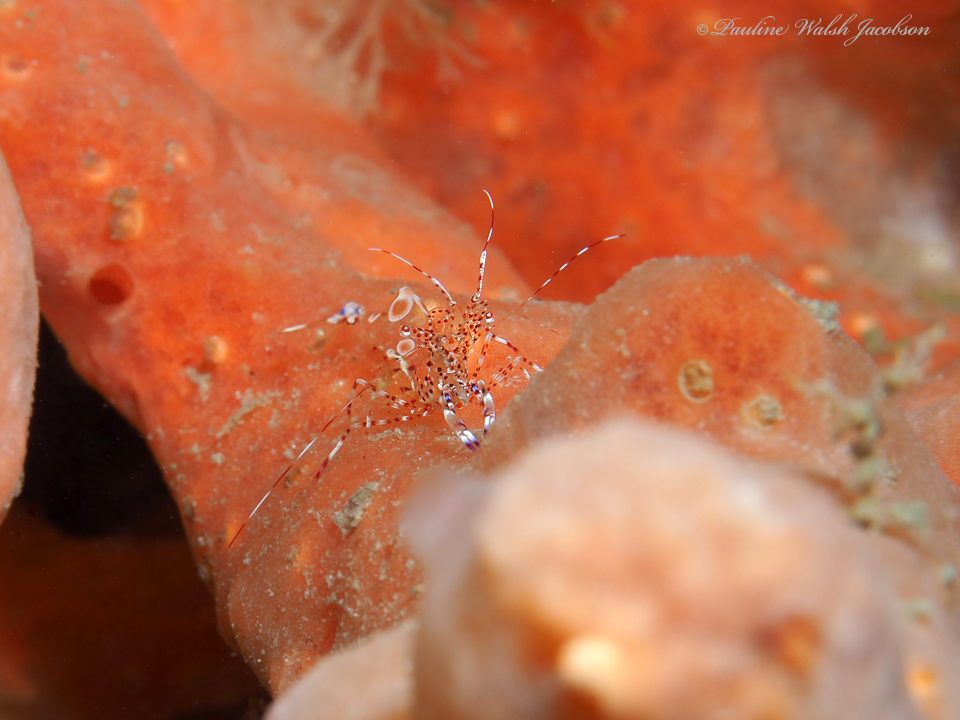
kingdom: Animalia
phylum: Arthropoda
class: Malacostraca
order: Decapoda
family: Palaemonidae
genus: Periclimenes
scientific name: Periclimenes yucatanicus
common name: Spotted cleaning shrimp
